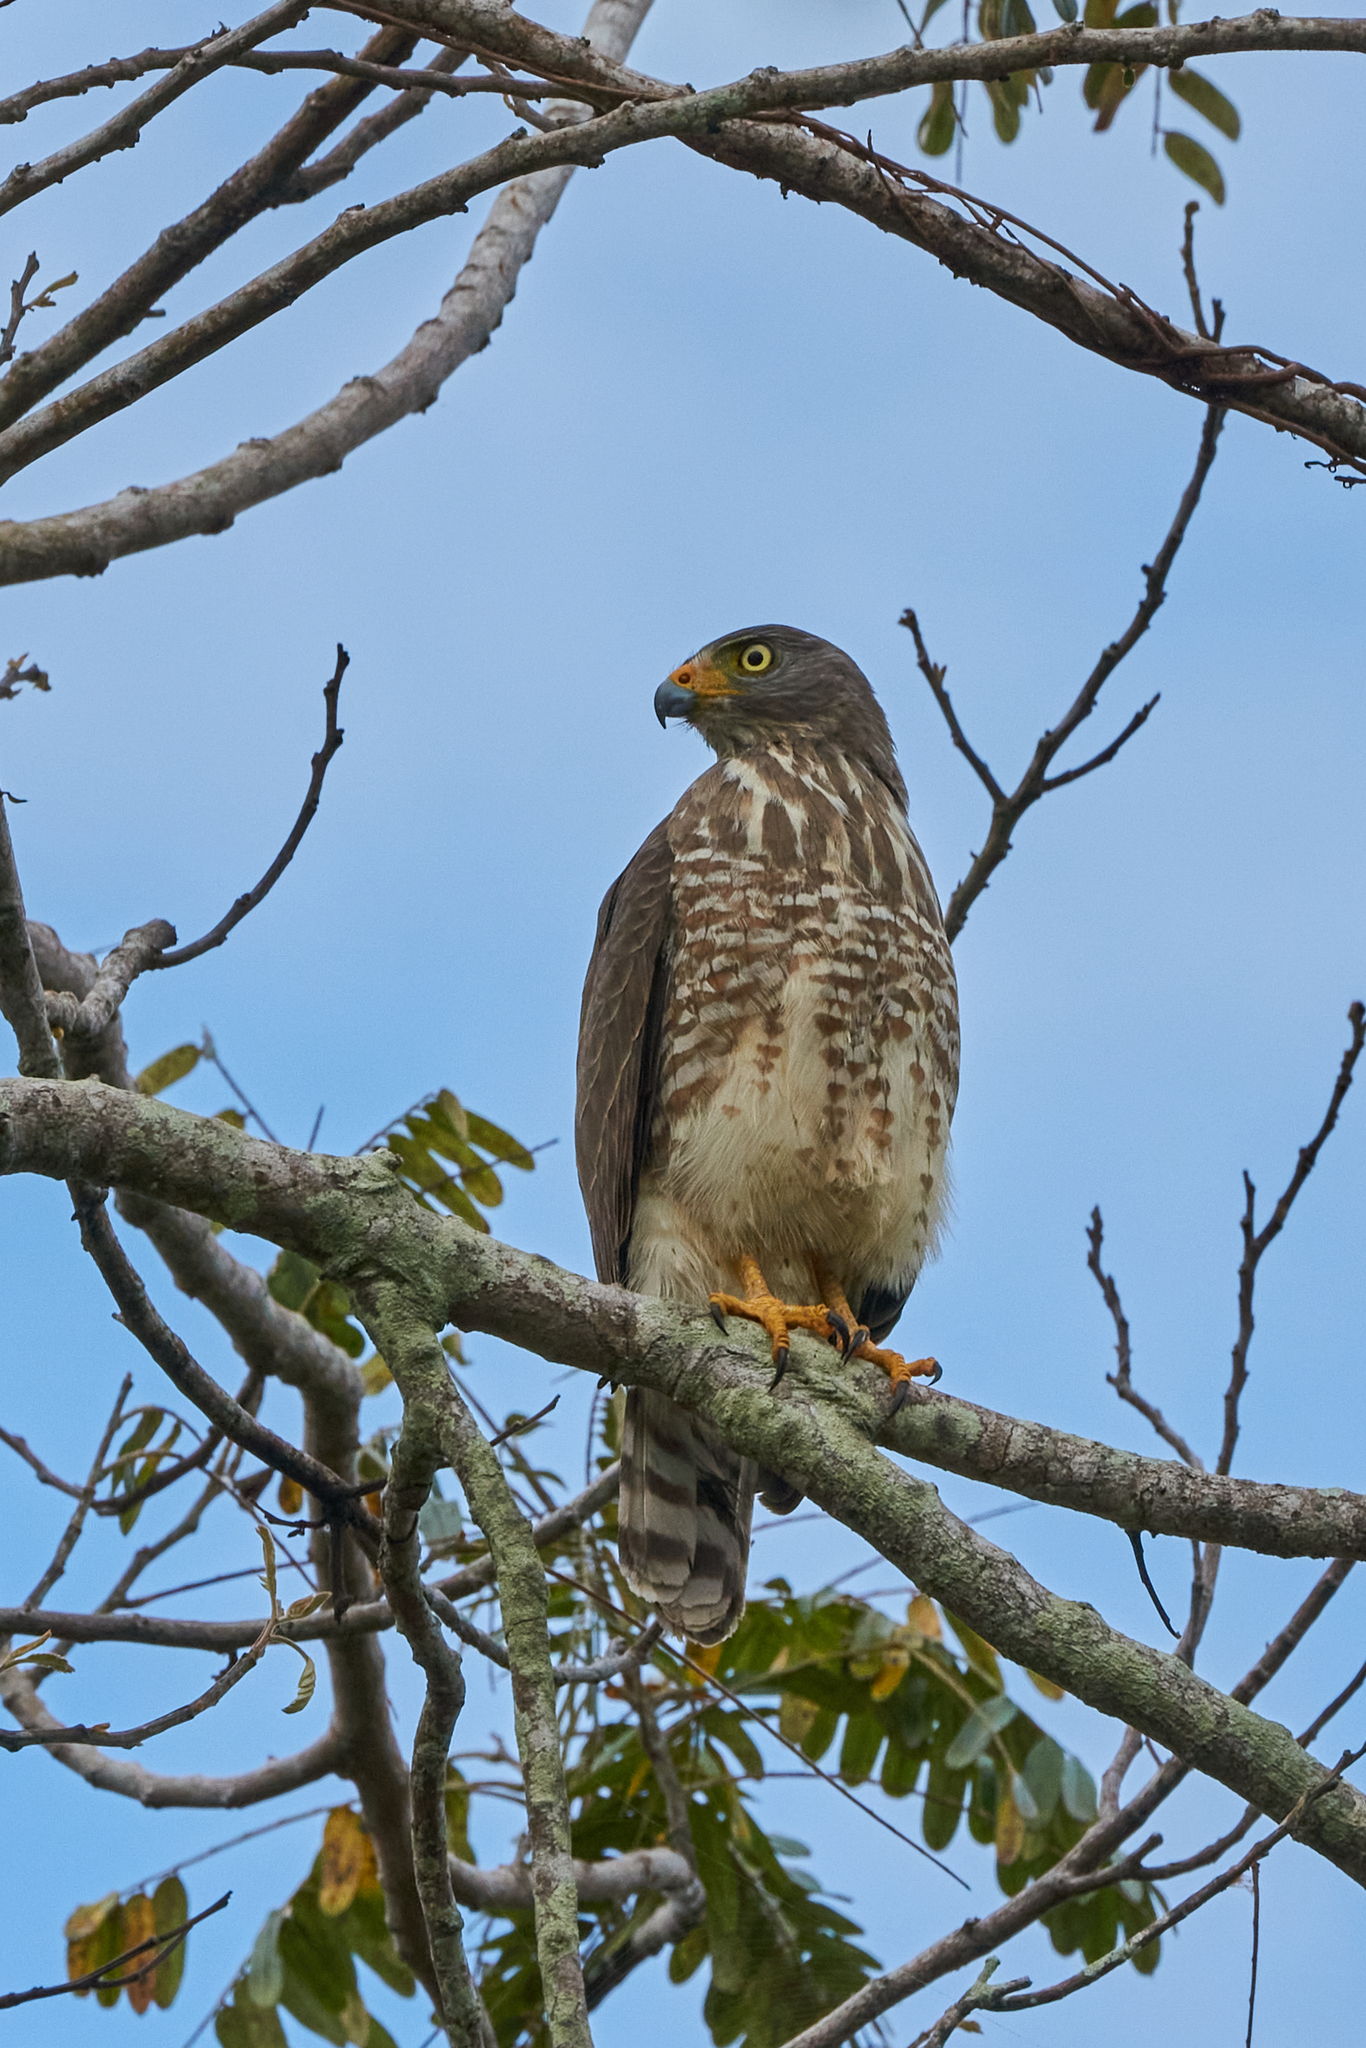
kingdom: Animalia
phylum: Chordata
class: Aves
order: Accipitriformes
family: Accipitridae
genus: Rupornis
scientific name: Rupornis magnirostris
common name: Roadside hawk
